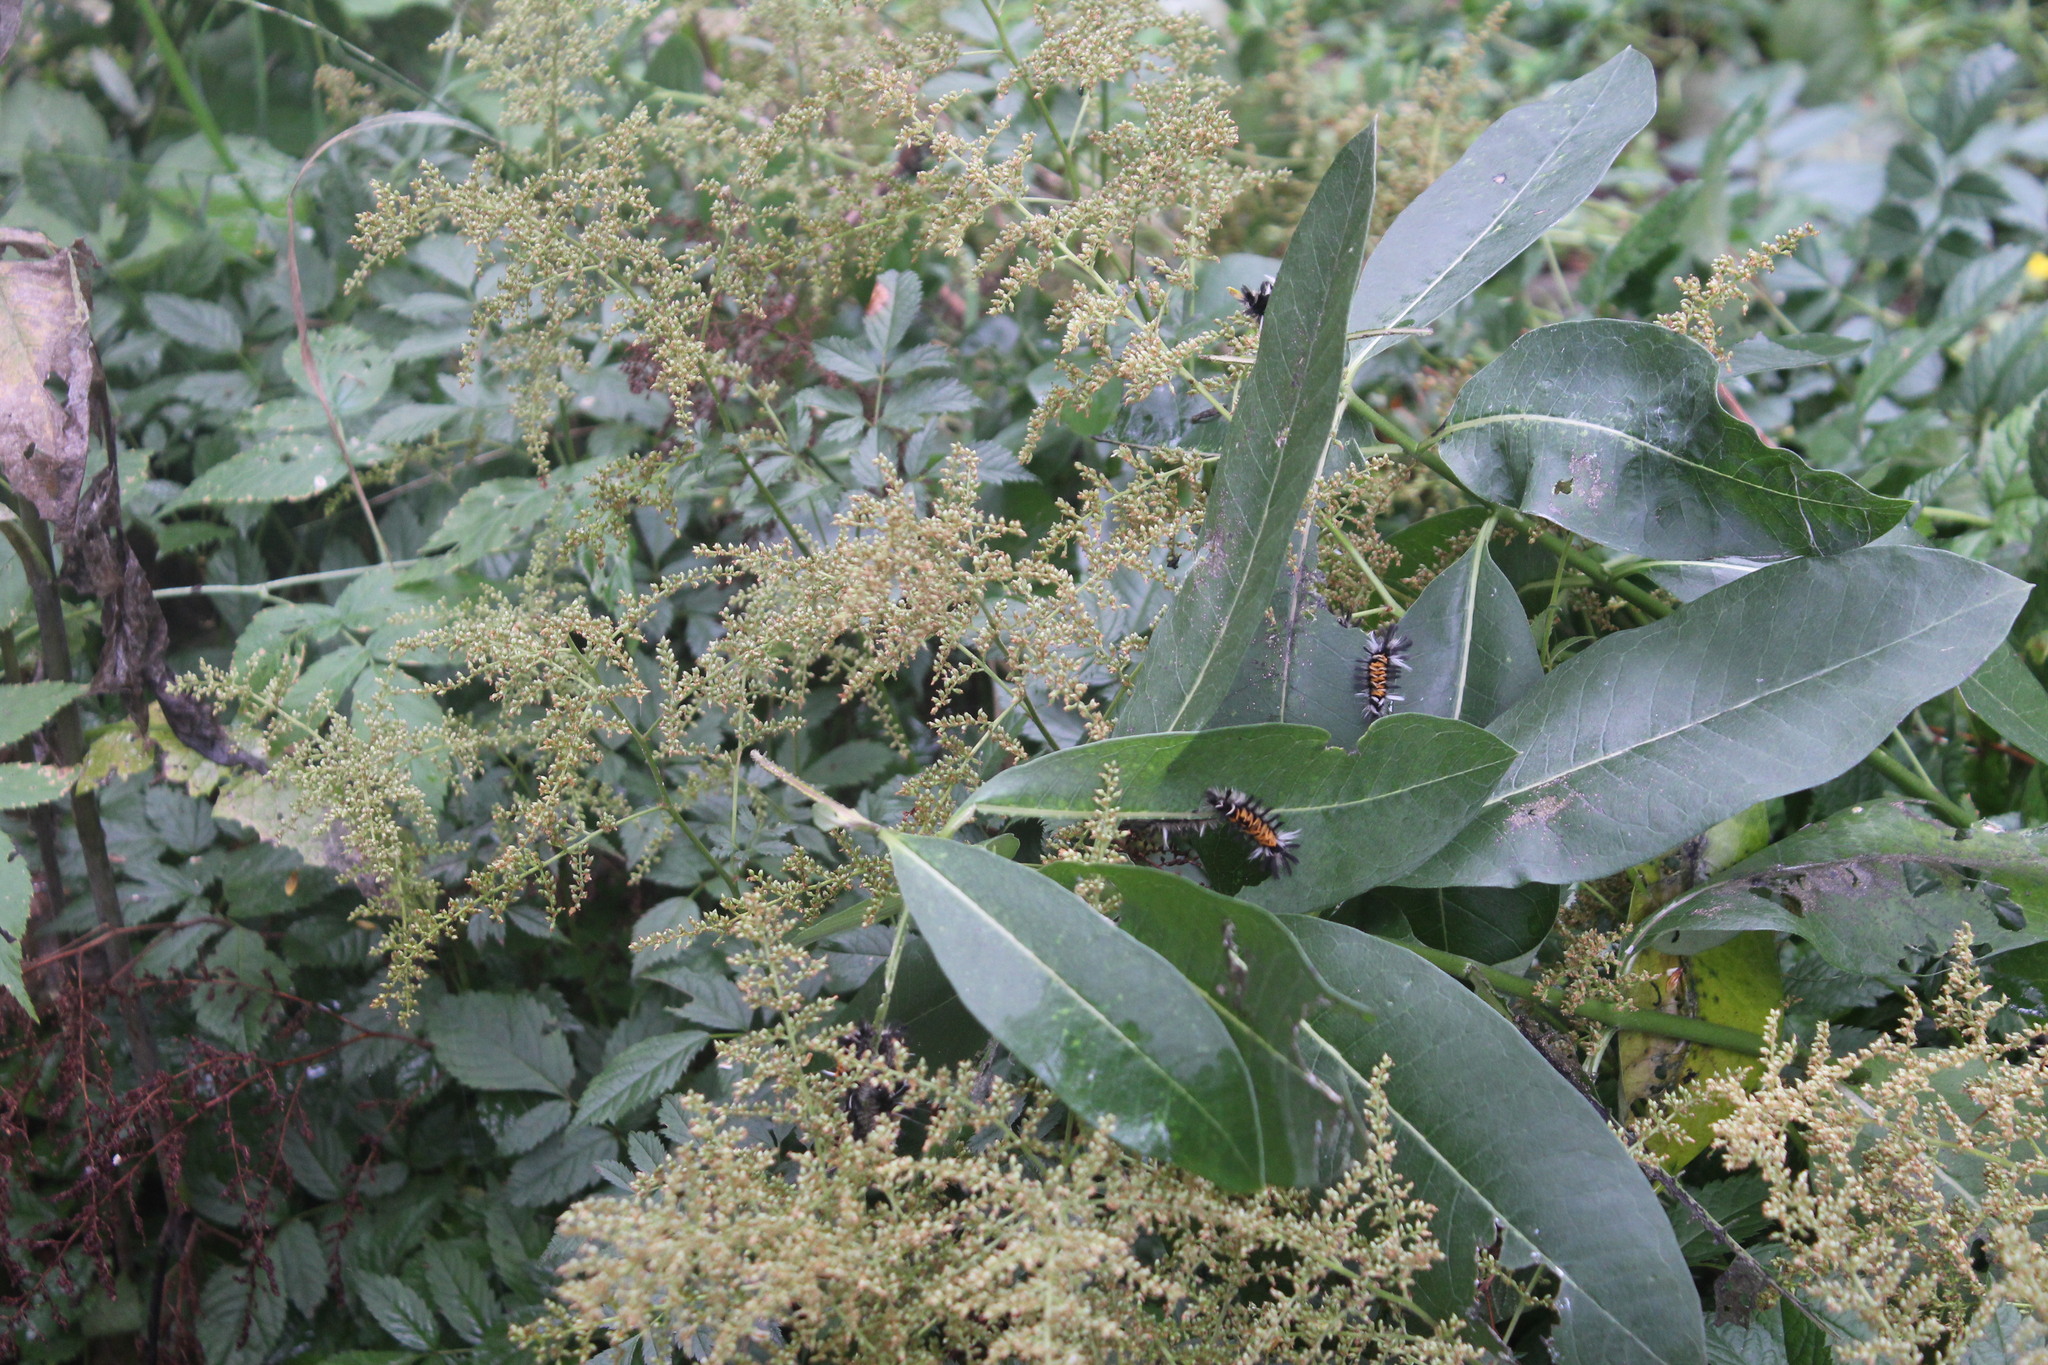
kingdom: Animalia
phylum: Arthropoda
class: Insecta
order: Lepidoptera
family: Erebidae
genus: Euchaetes
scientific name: Euchaetes egle
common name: Milkweed tussock moth
